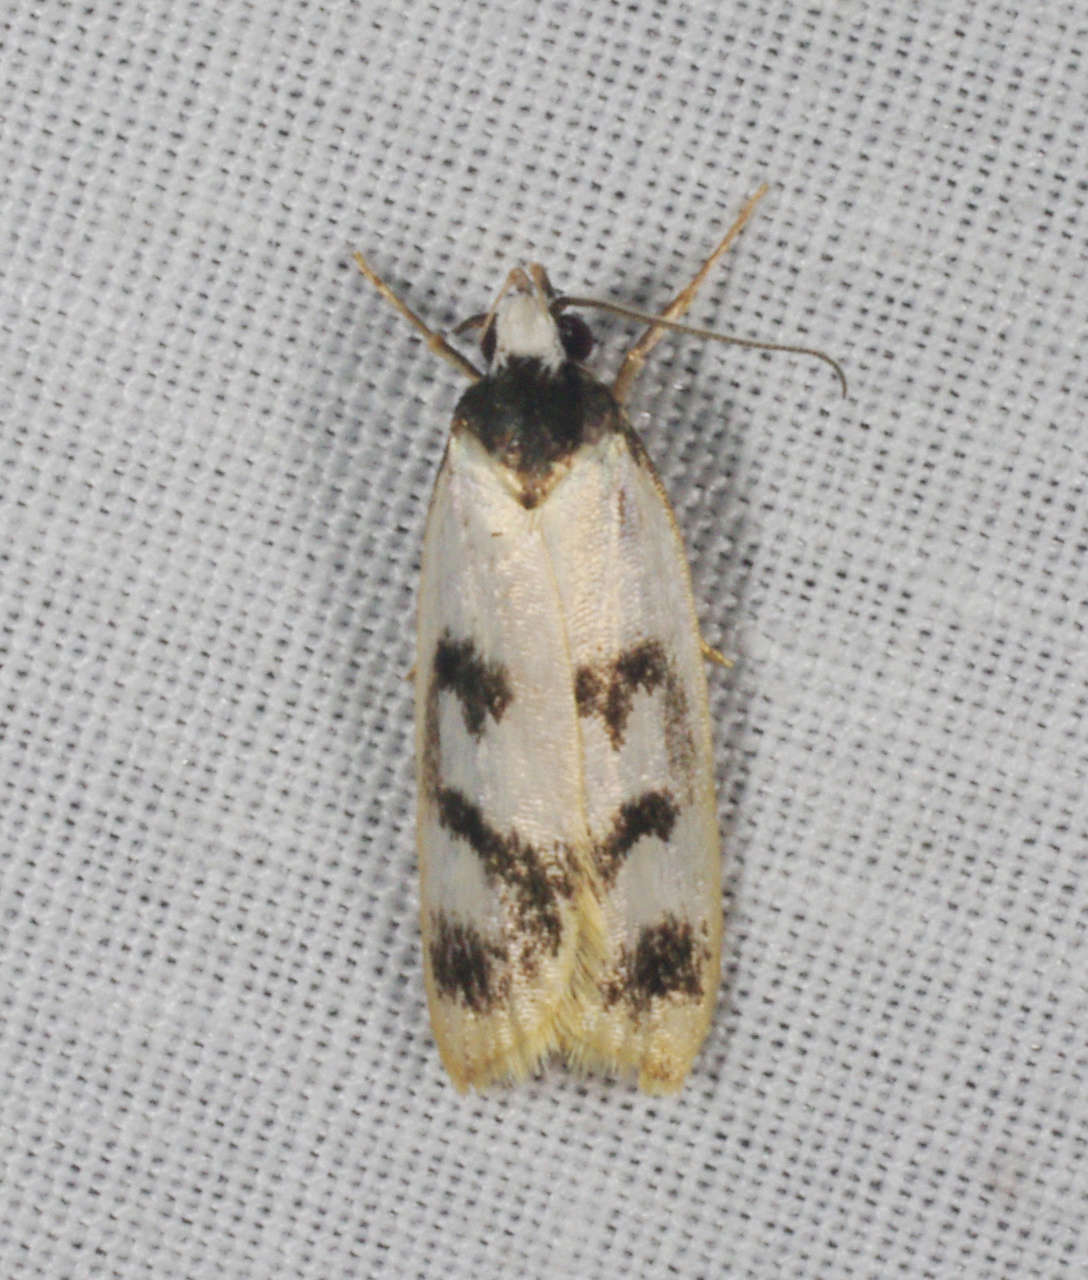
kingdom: Animalia
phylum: Arthropoda
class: Insecta
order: Lepidoptera
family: Oecophoridae
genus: Eulechria
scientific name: Eulechria sigmophora
